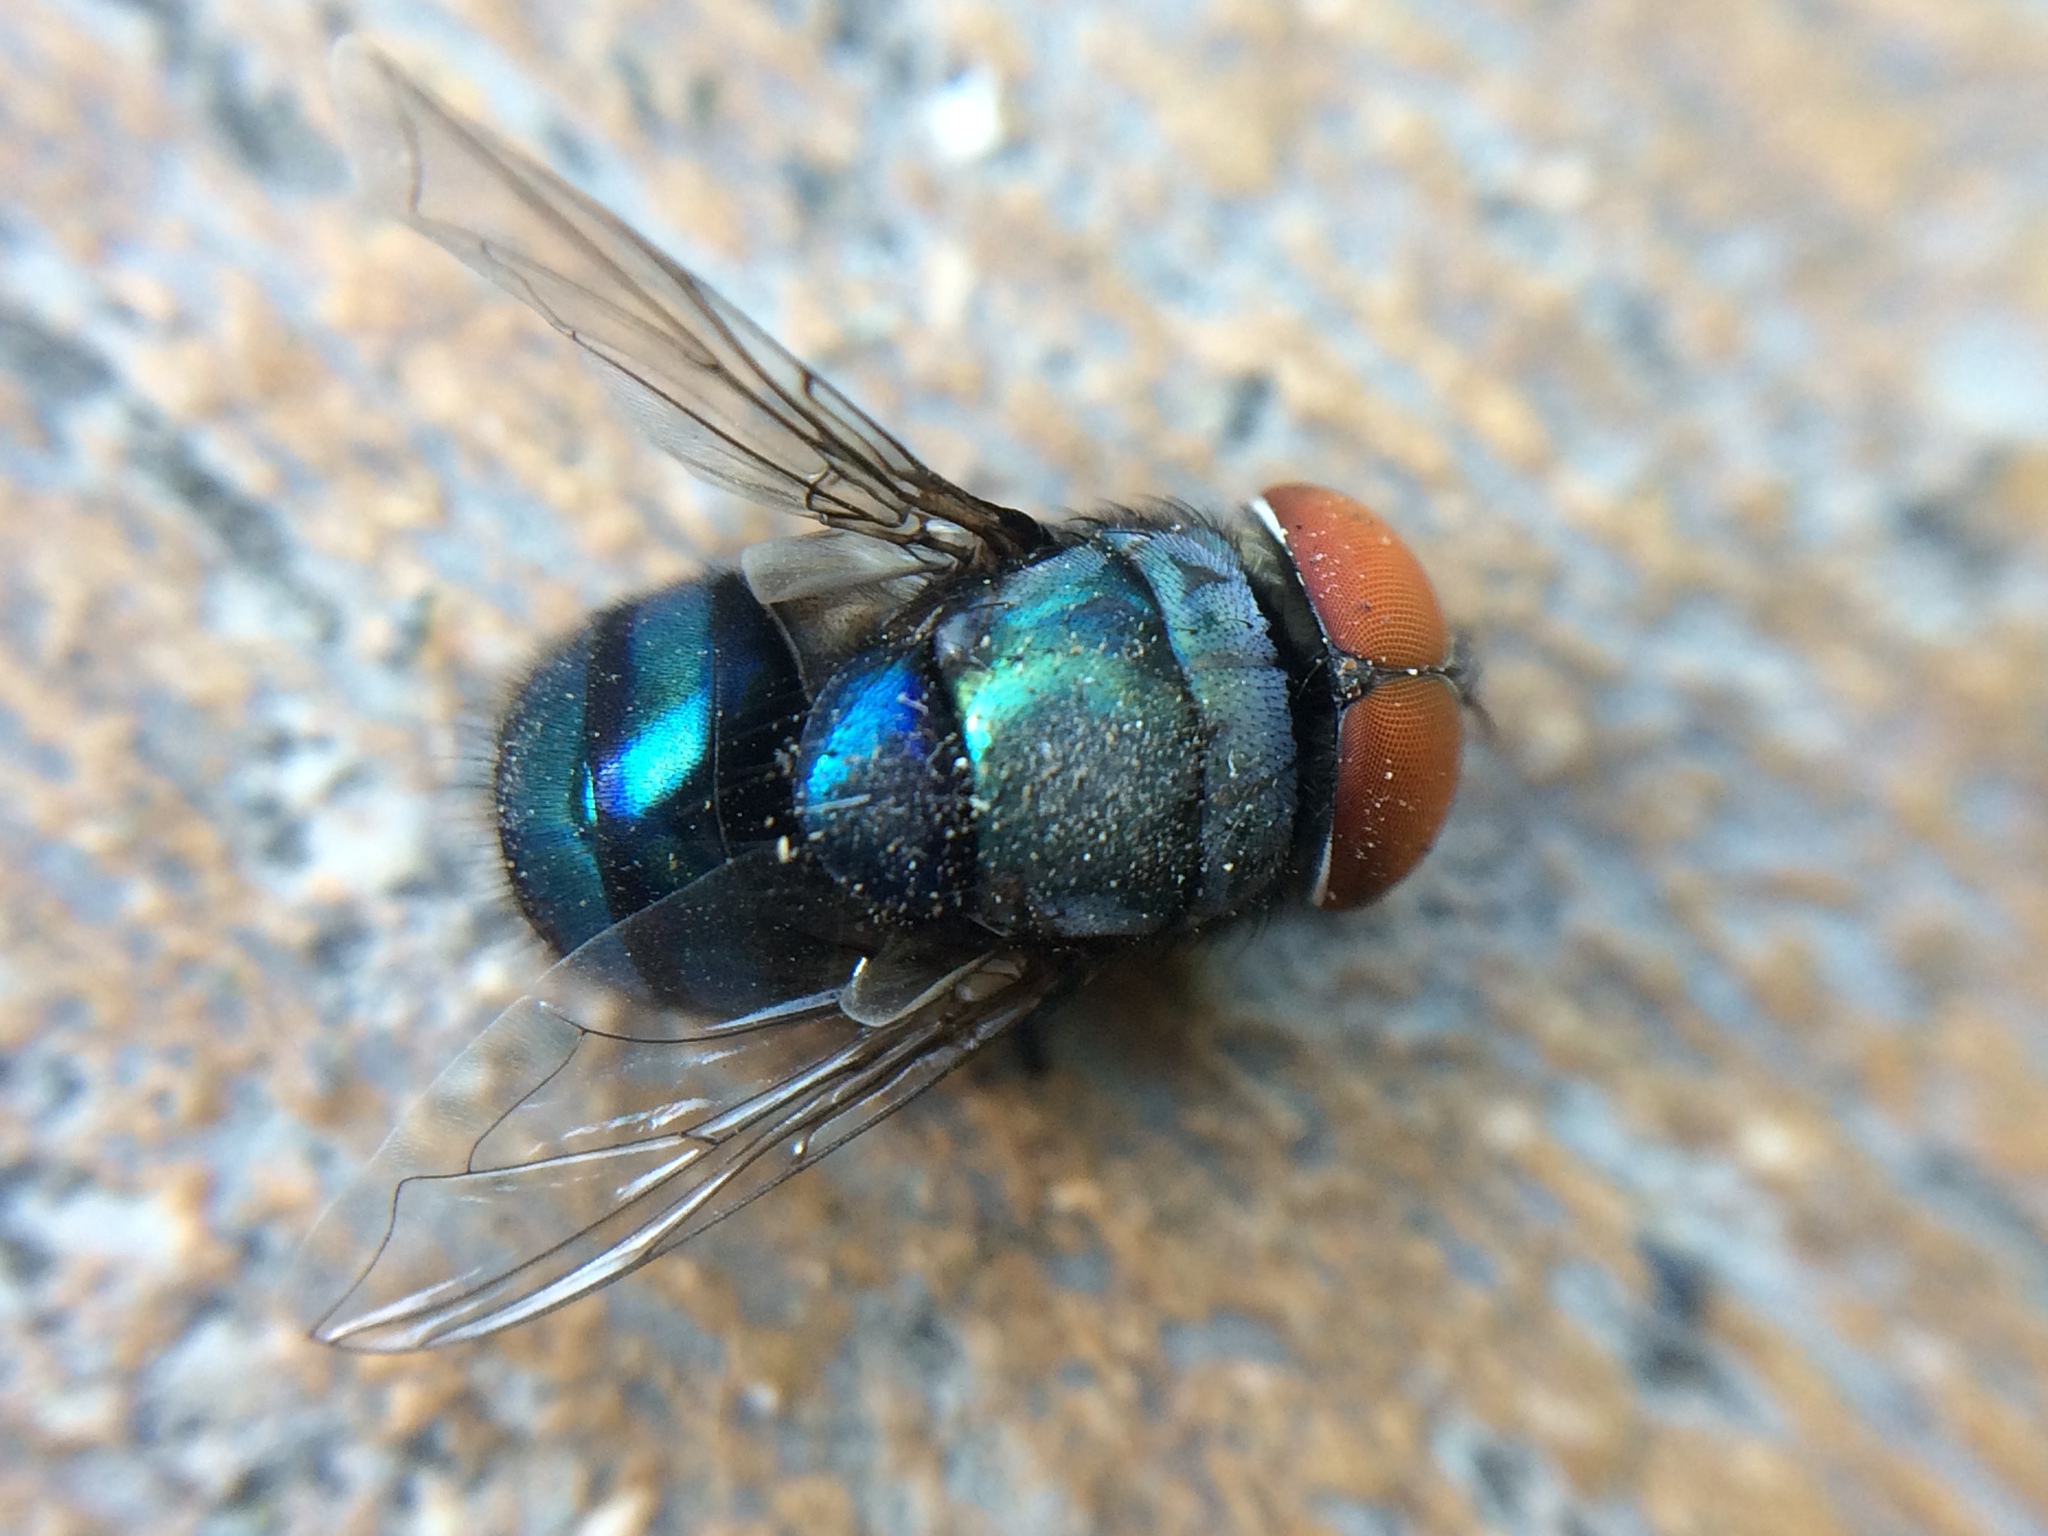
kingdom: Animalia
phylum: Arthropoda
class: Insecta
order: Diptera
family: Calliphoridae
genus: Chrysomya
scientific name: Chrysomya megacephala
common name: Blow fly
